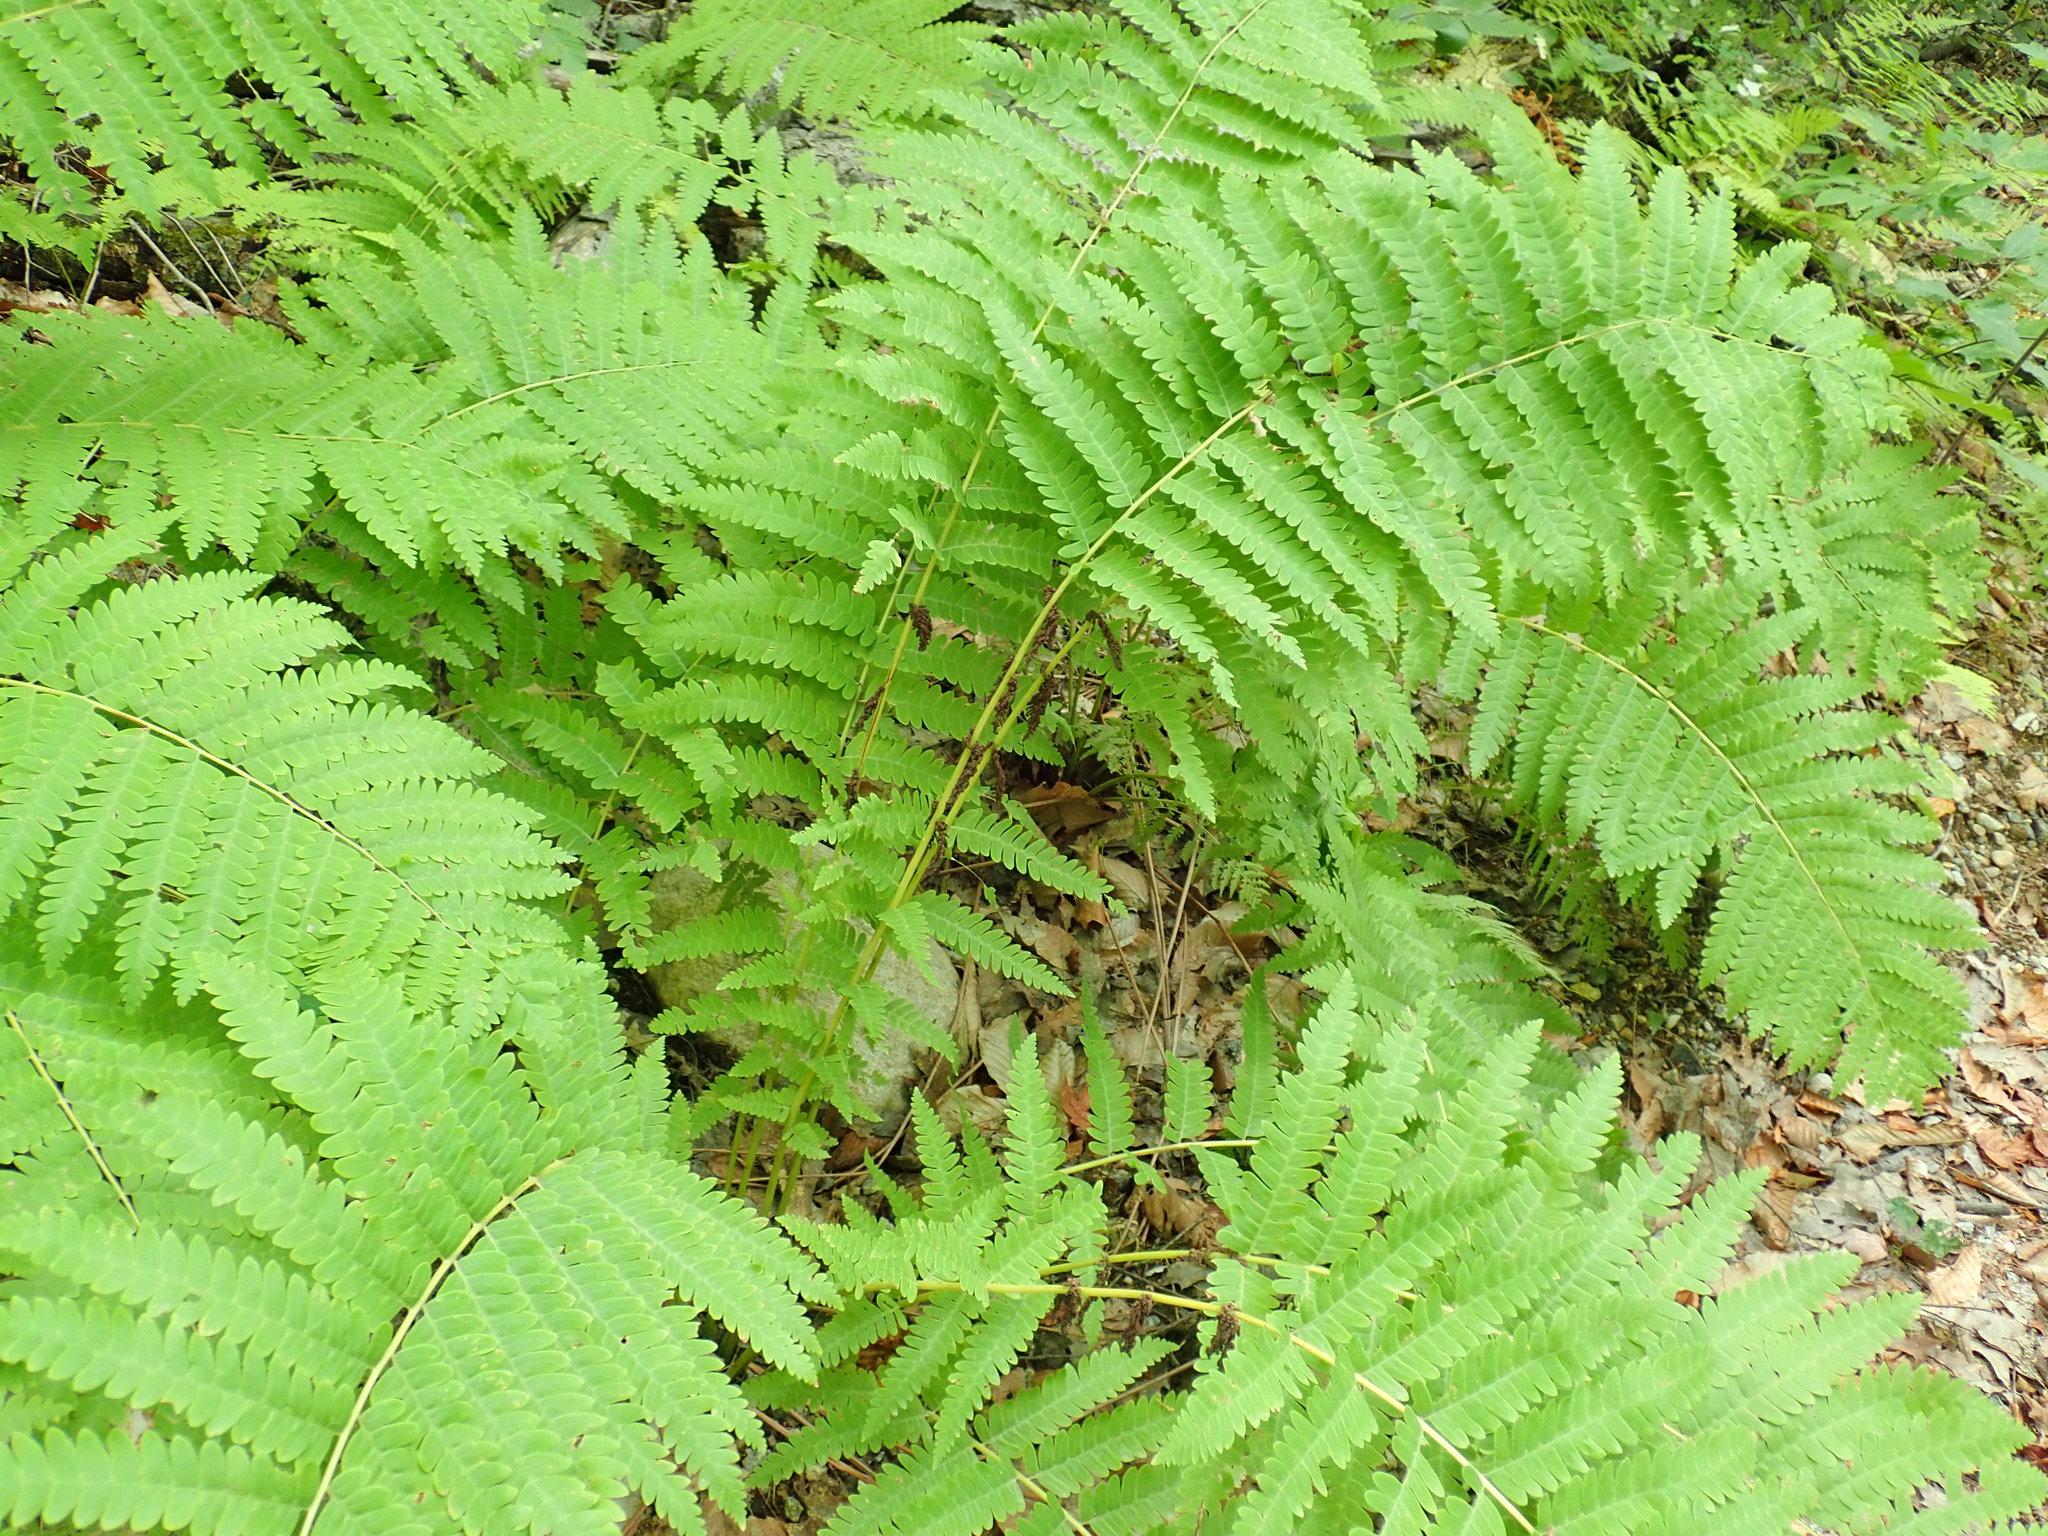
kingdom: Plantae
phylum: Tracheophyta
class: Polypodiopsida
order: Osmundales
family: Osmundaceae
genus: Claytosmunda
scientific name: Claytosmunda claytoniana
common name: Clayton's fern
